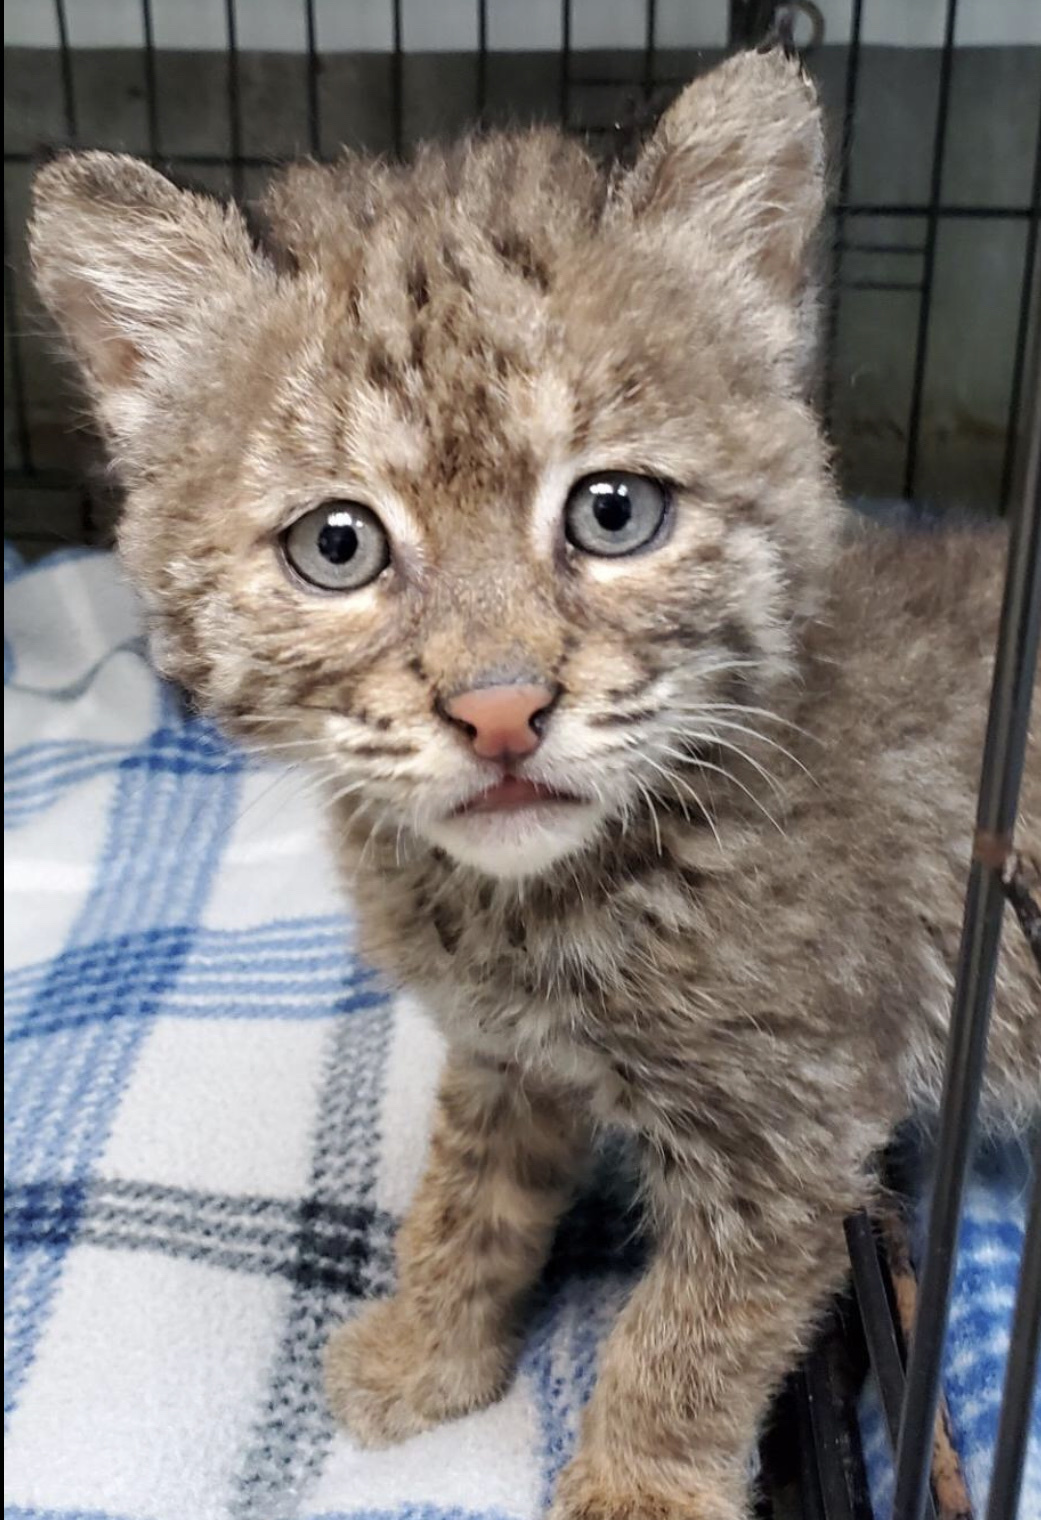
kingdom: Animalia
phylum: Chordata
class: Mammalia
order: Carnivora
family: Felidae
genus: Lynx
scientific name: Lynx rufus
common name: Bobcat
